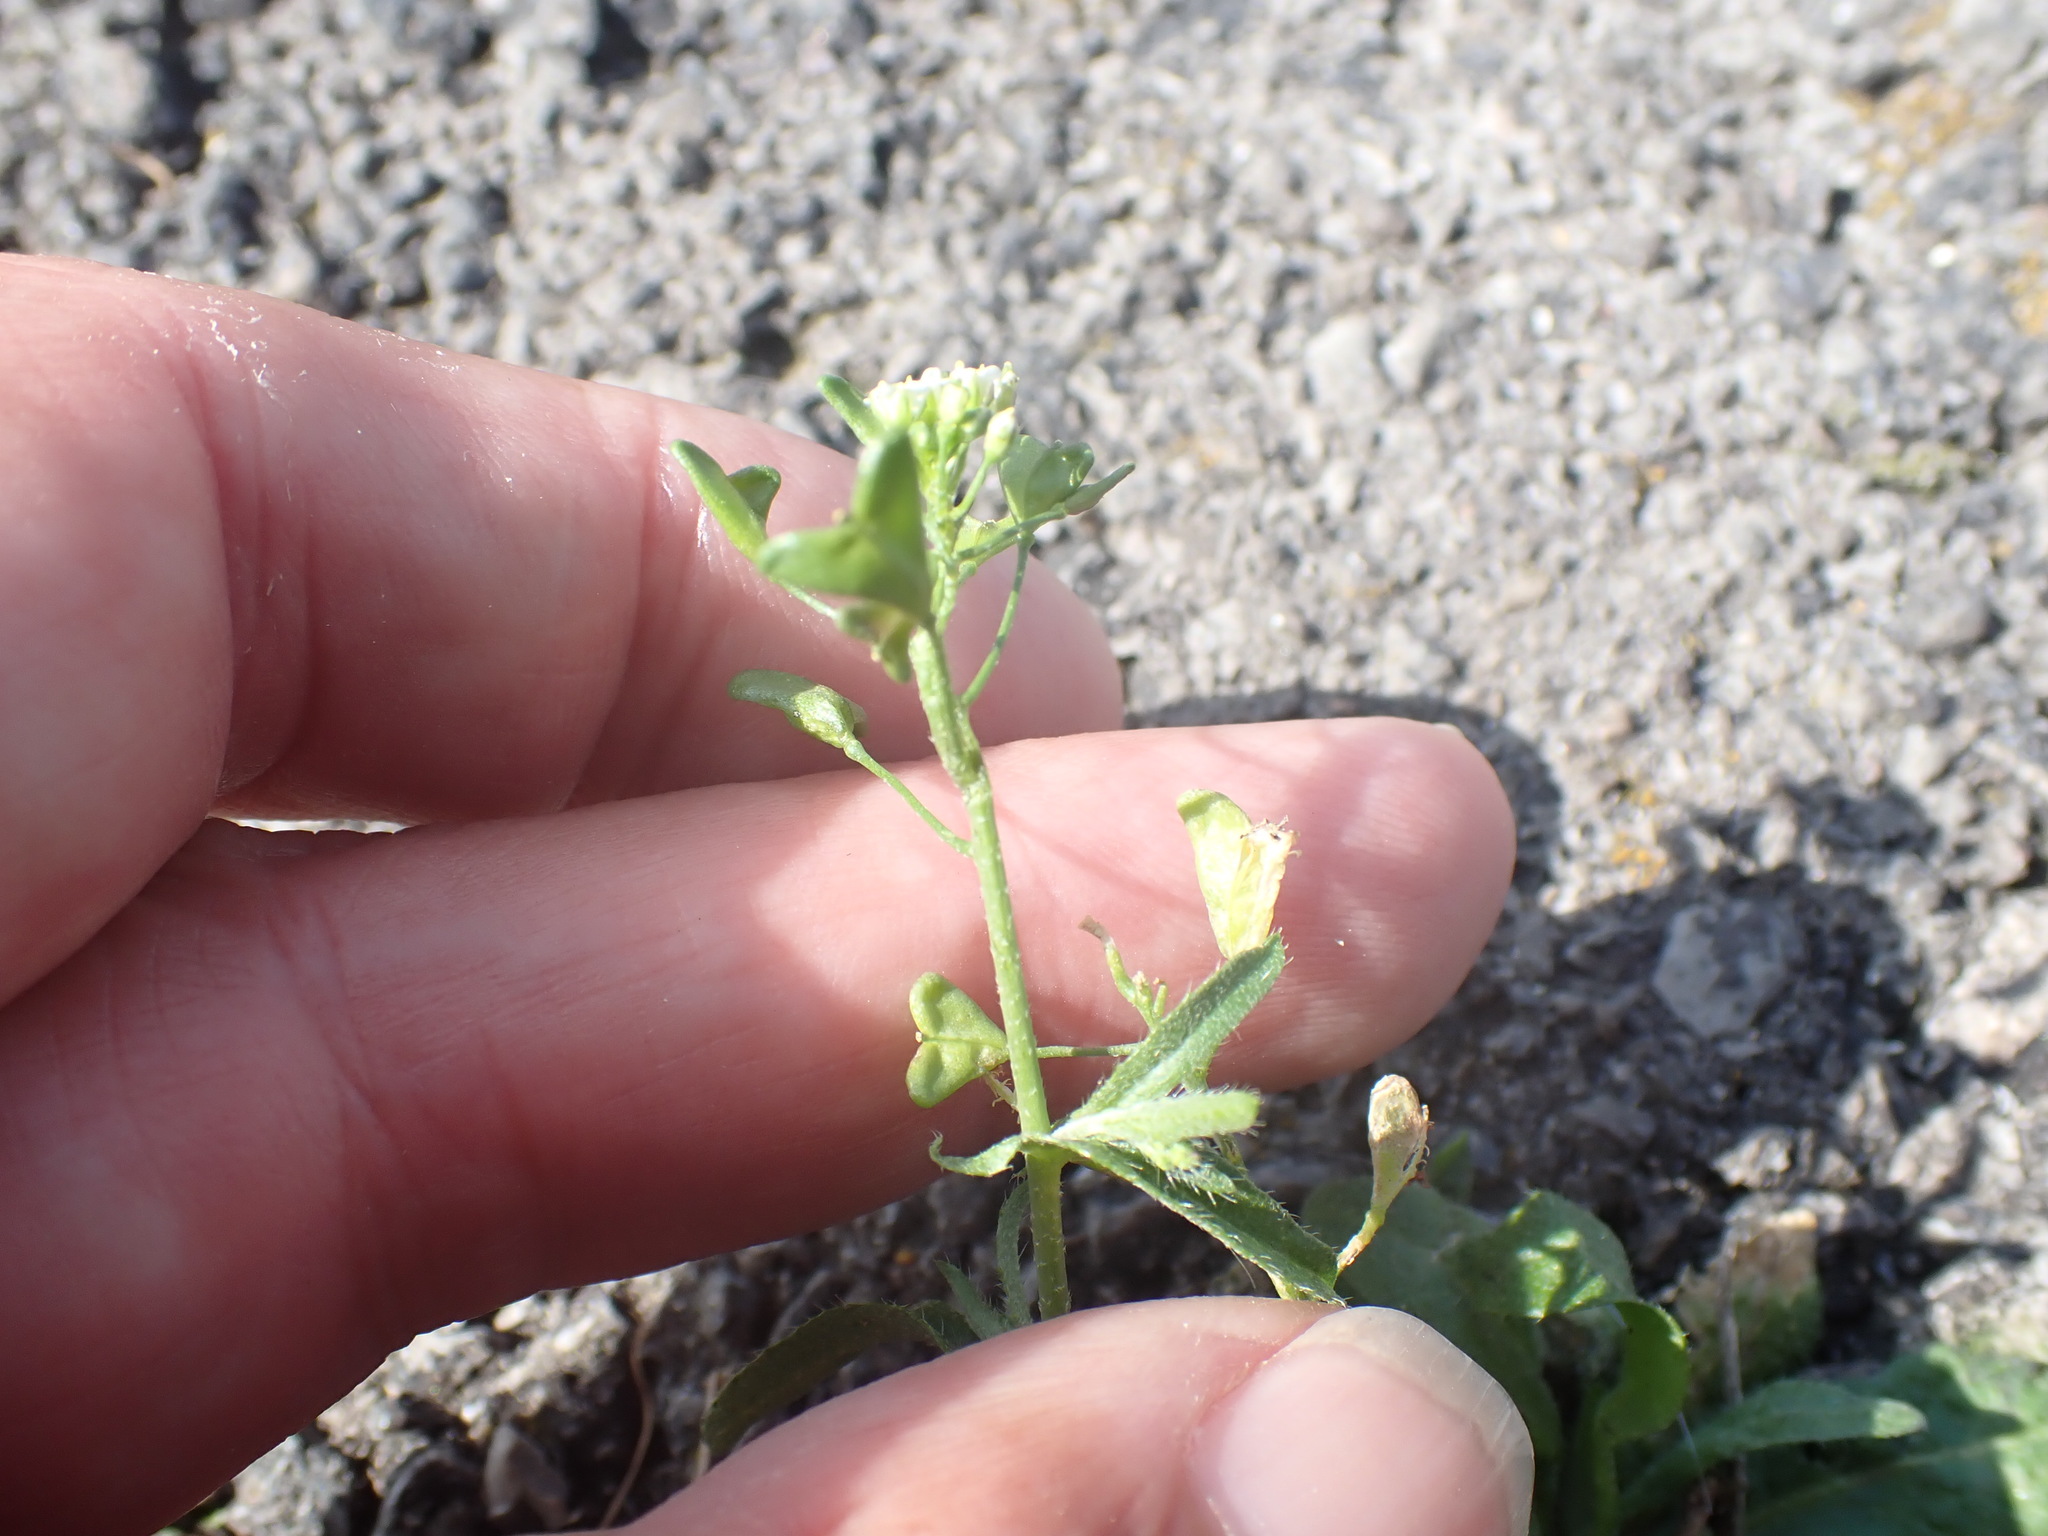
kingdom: Plantae
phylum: Tracheophyta
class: Magnoliopsida
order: Brassicales
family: Brassicaceae
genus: Capsella
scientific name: Capsella bursa-pastoris
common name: Shepherd's purse
